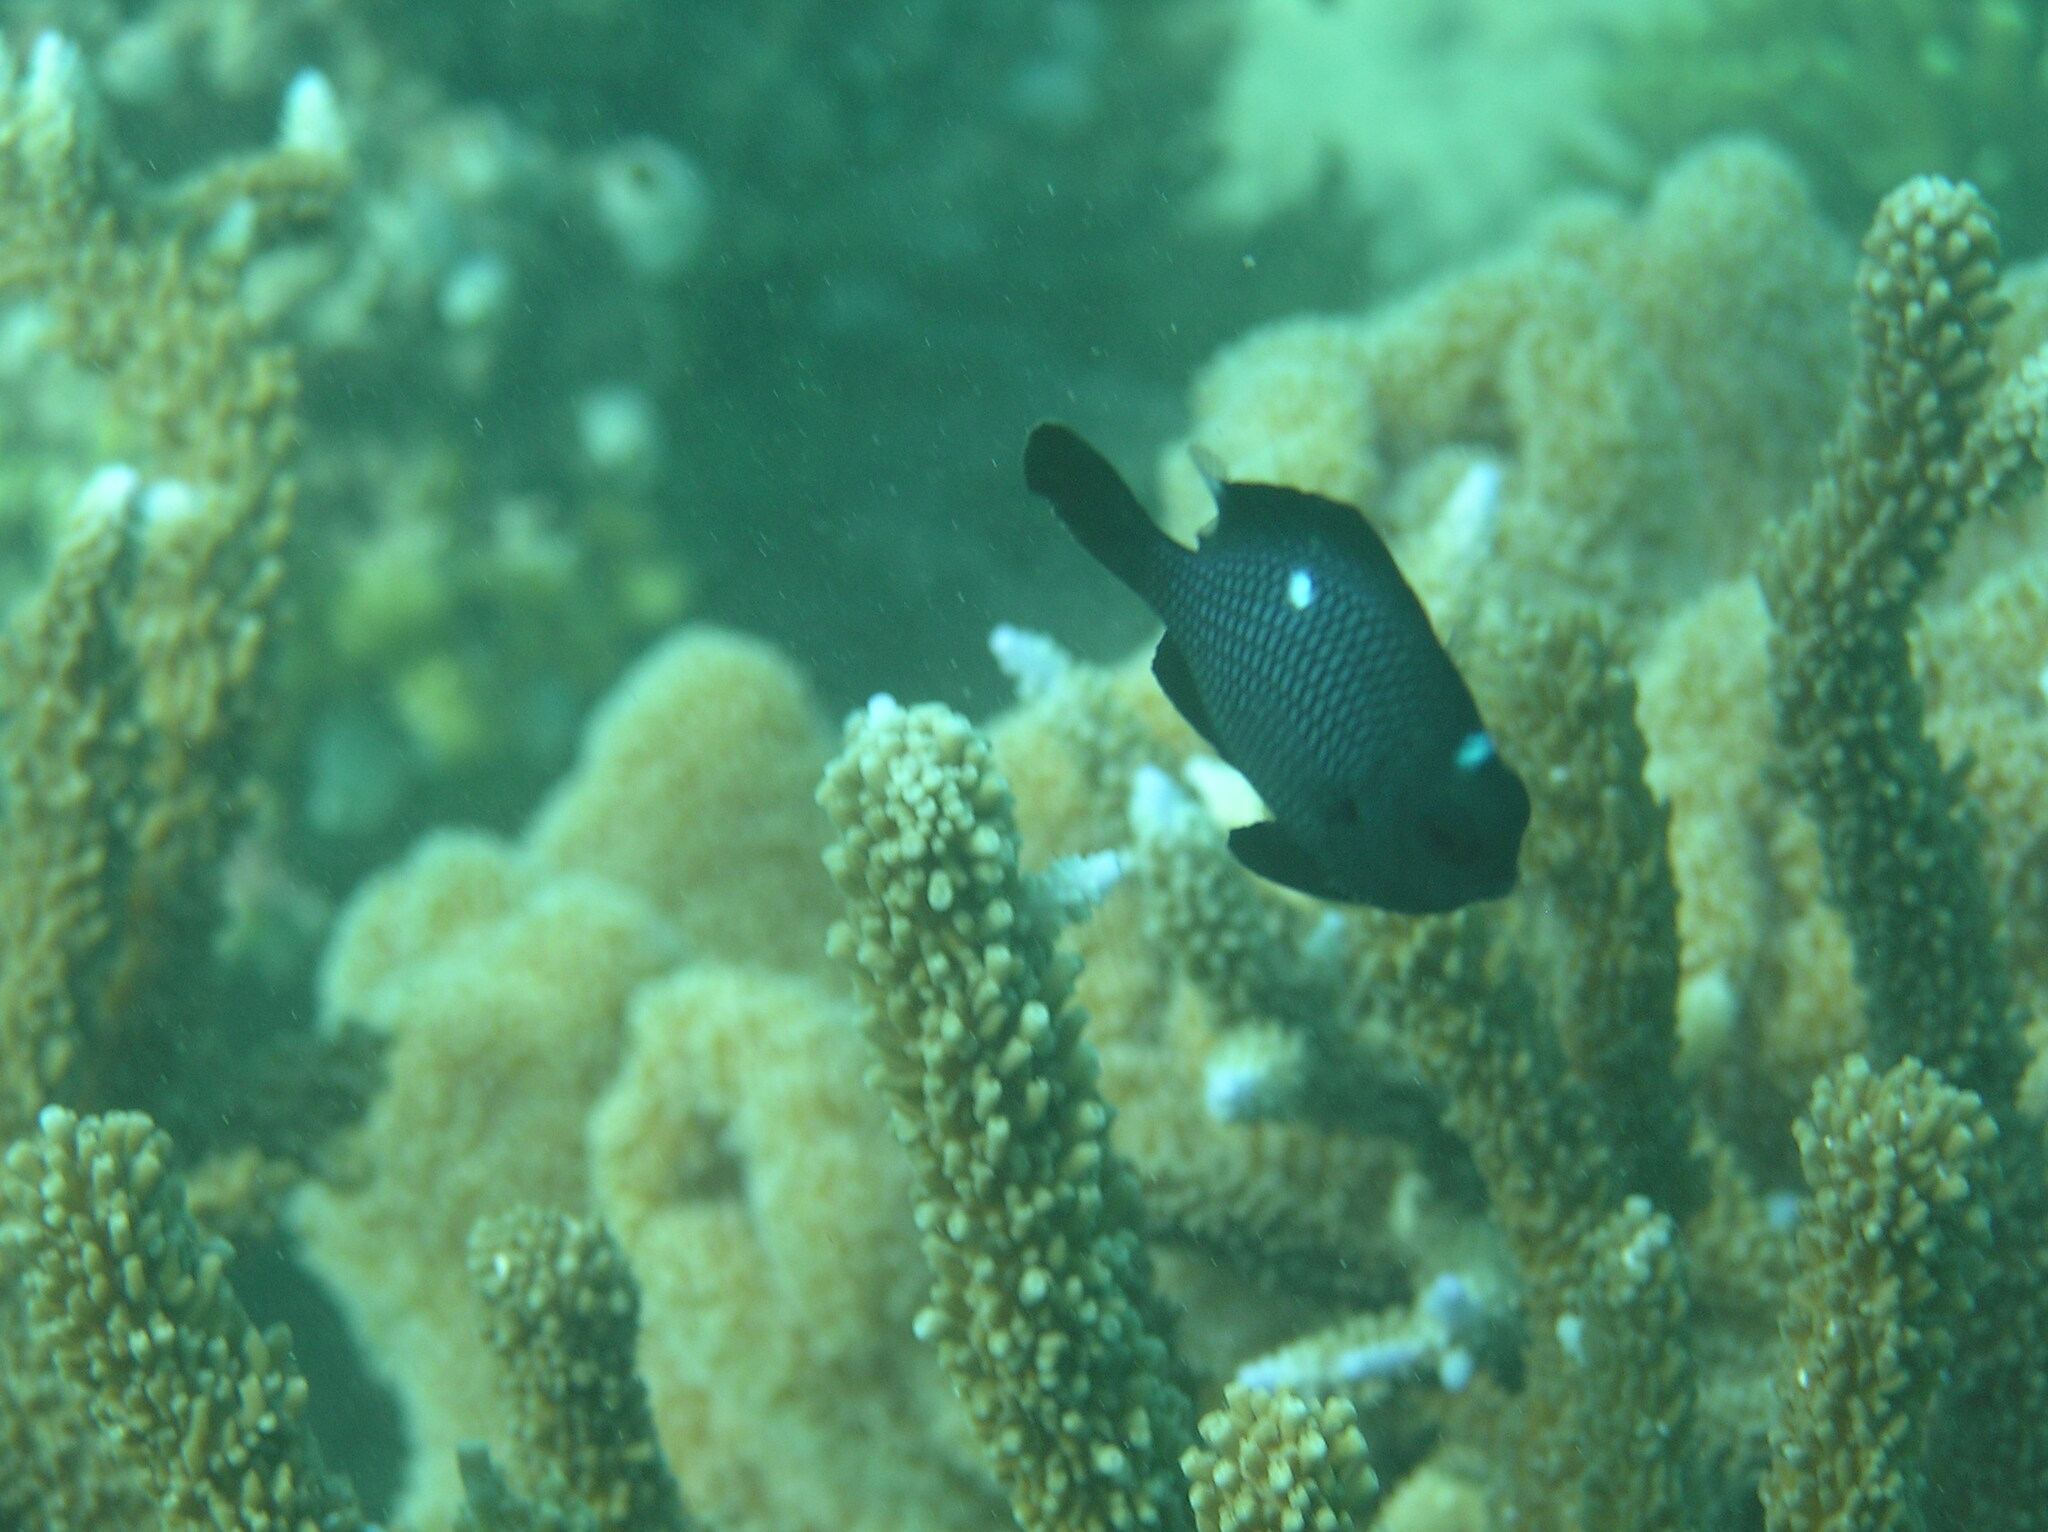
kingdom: Animalia
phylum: Chordata
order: Perciformes
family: Pomacentridae
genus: Dascyllus
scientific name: Dascyllus trimaculatus
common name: Threespot dascyllus
